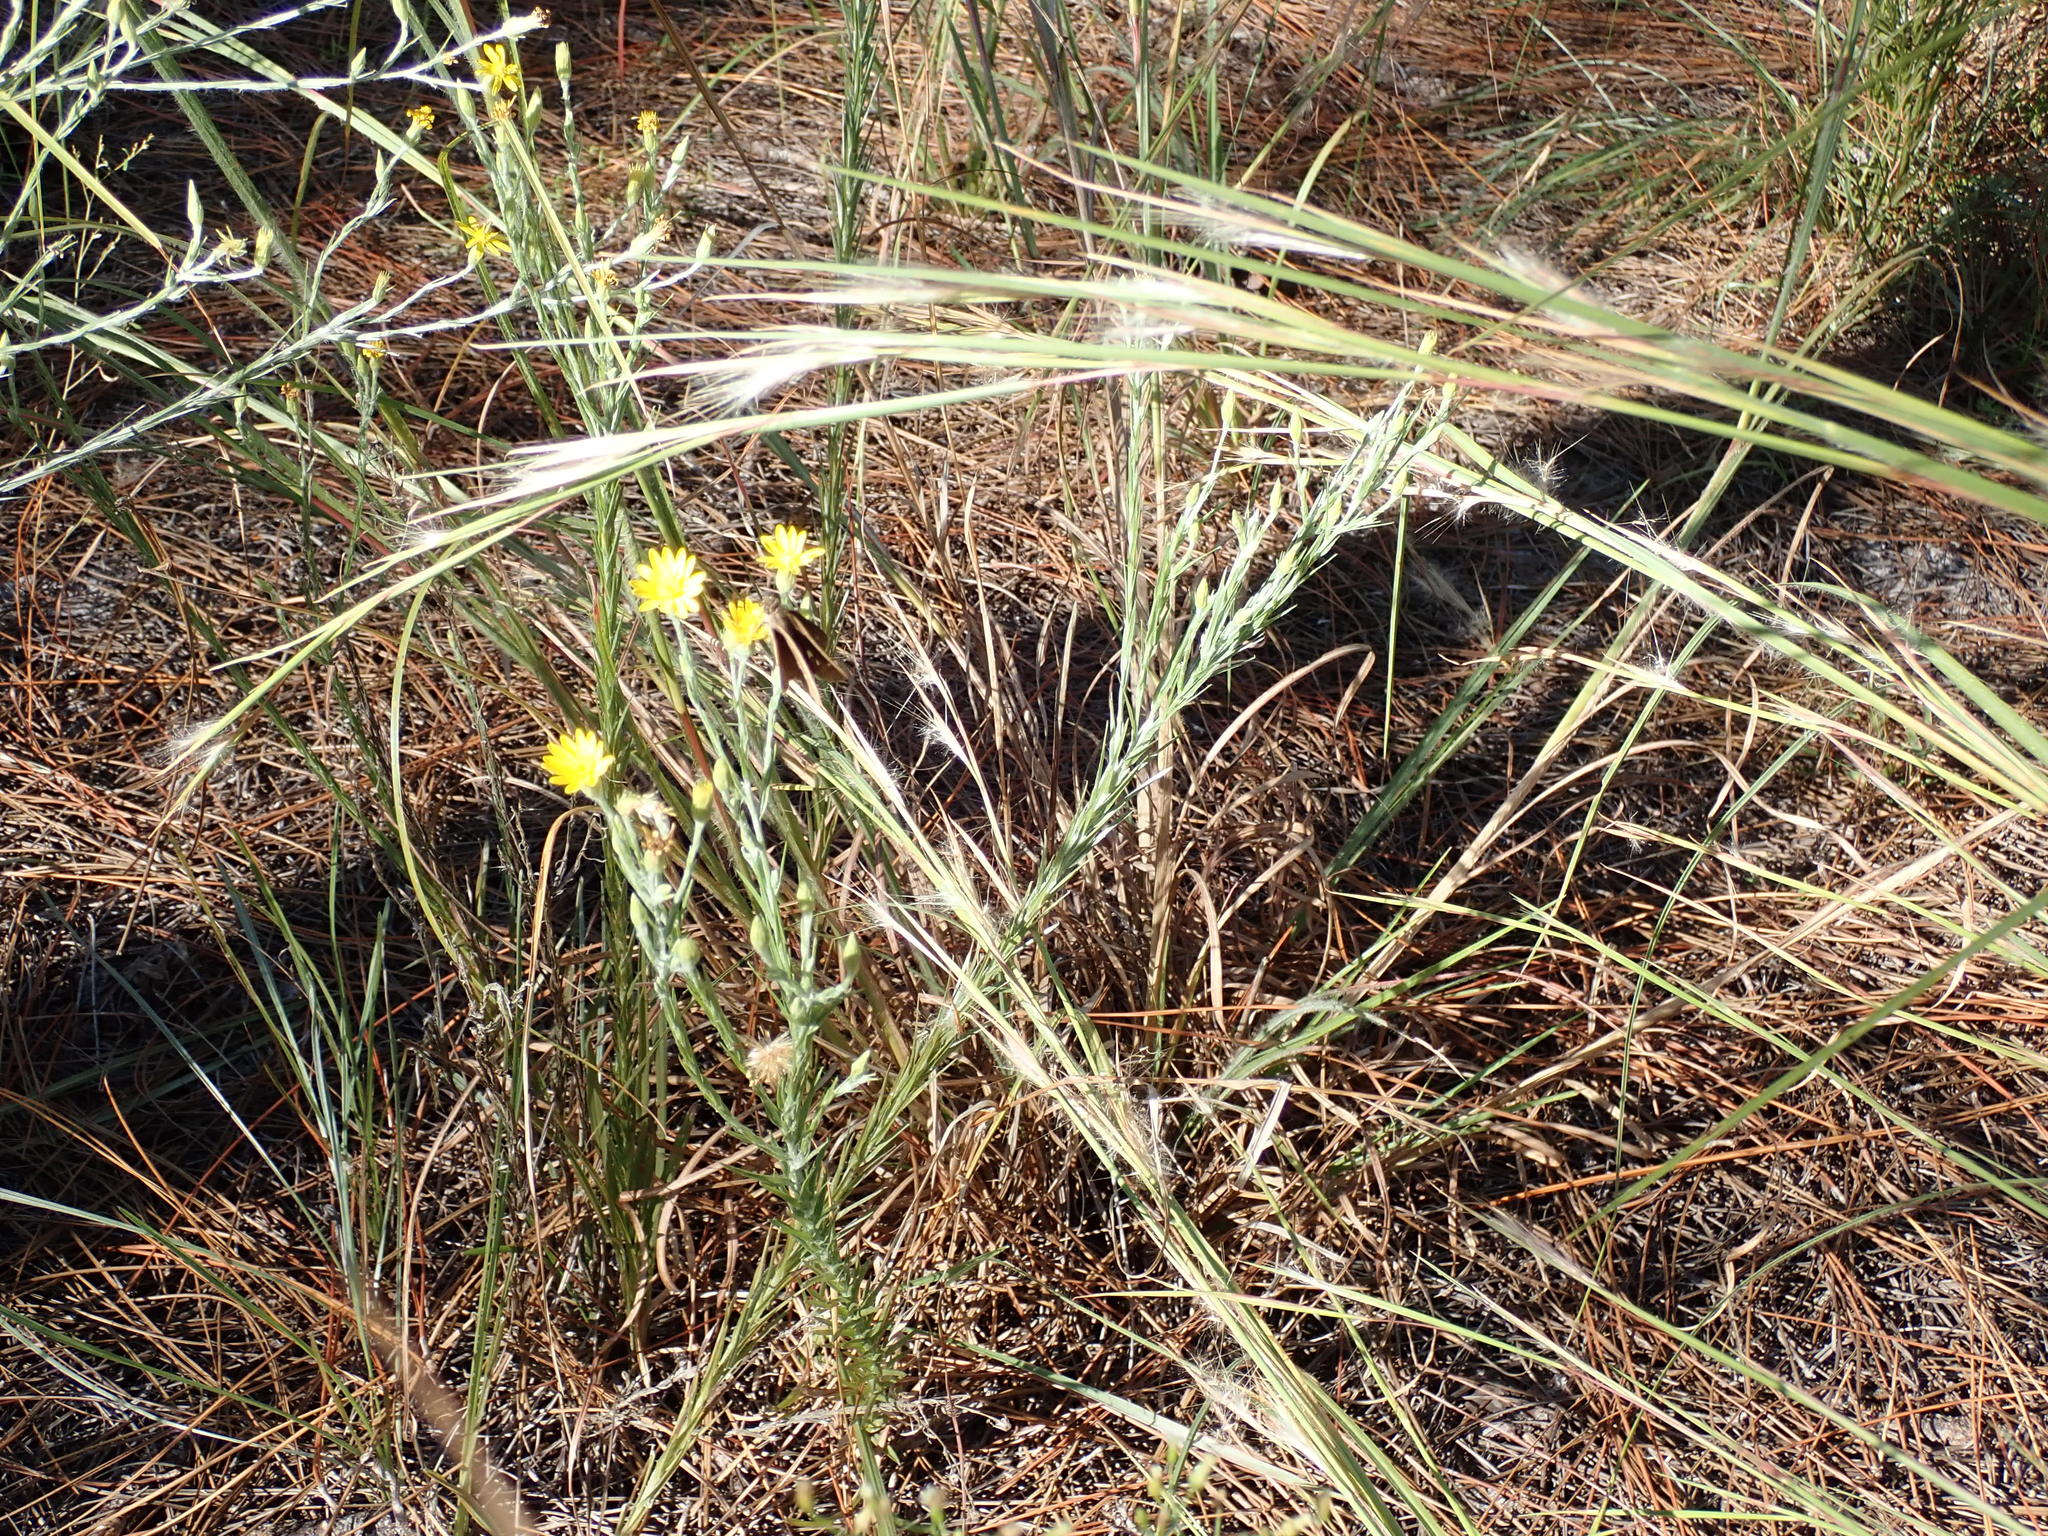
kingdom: Animalia
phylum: Arthropoda
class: Insecta
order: Lepidoptera
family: Hesperiidae
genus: Panoquina
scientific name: Panoquina ocola
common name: Ocola skipper
